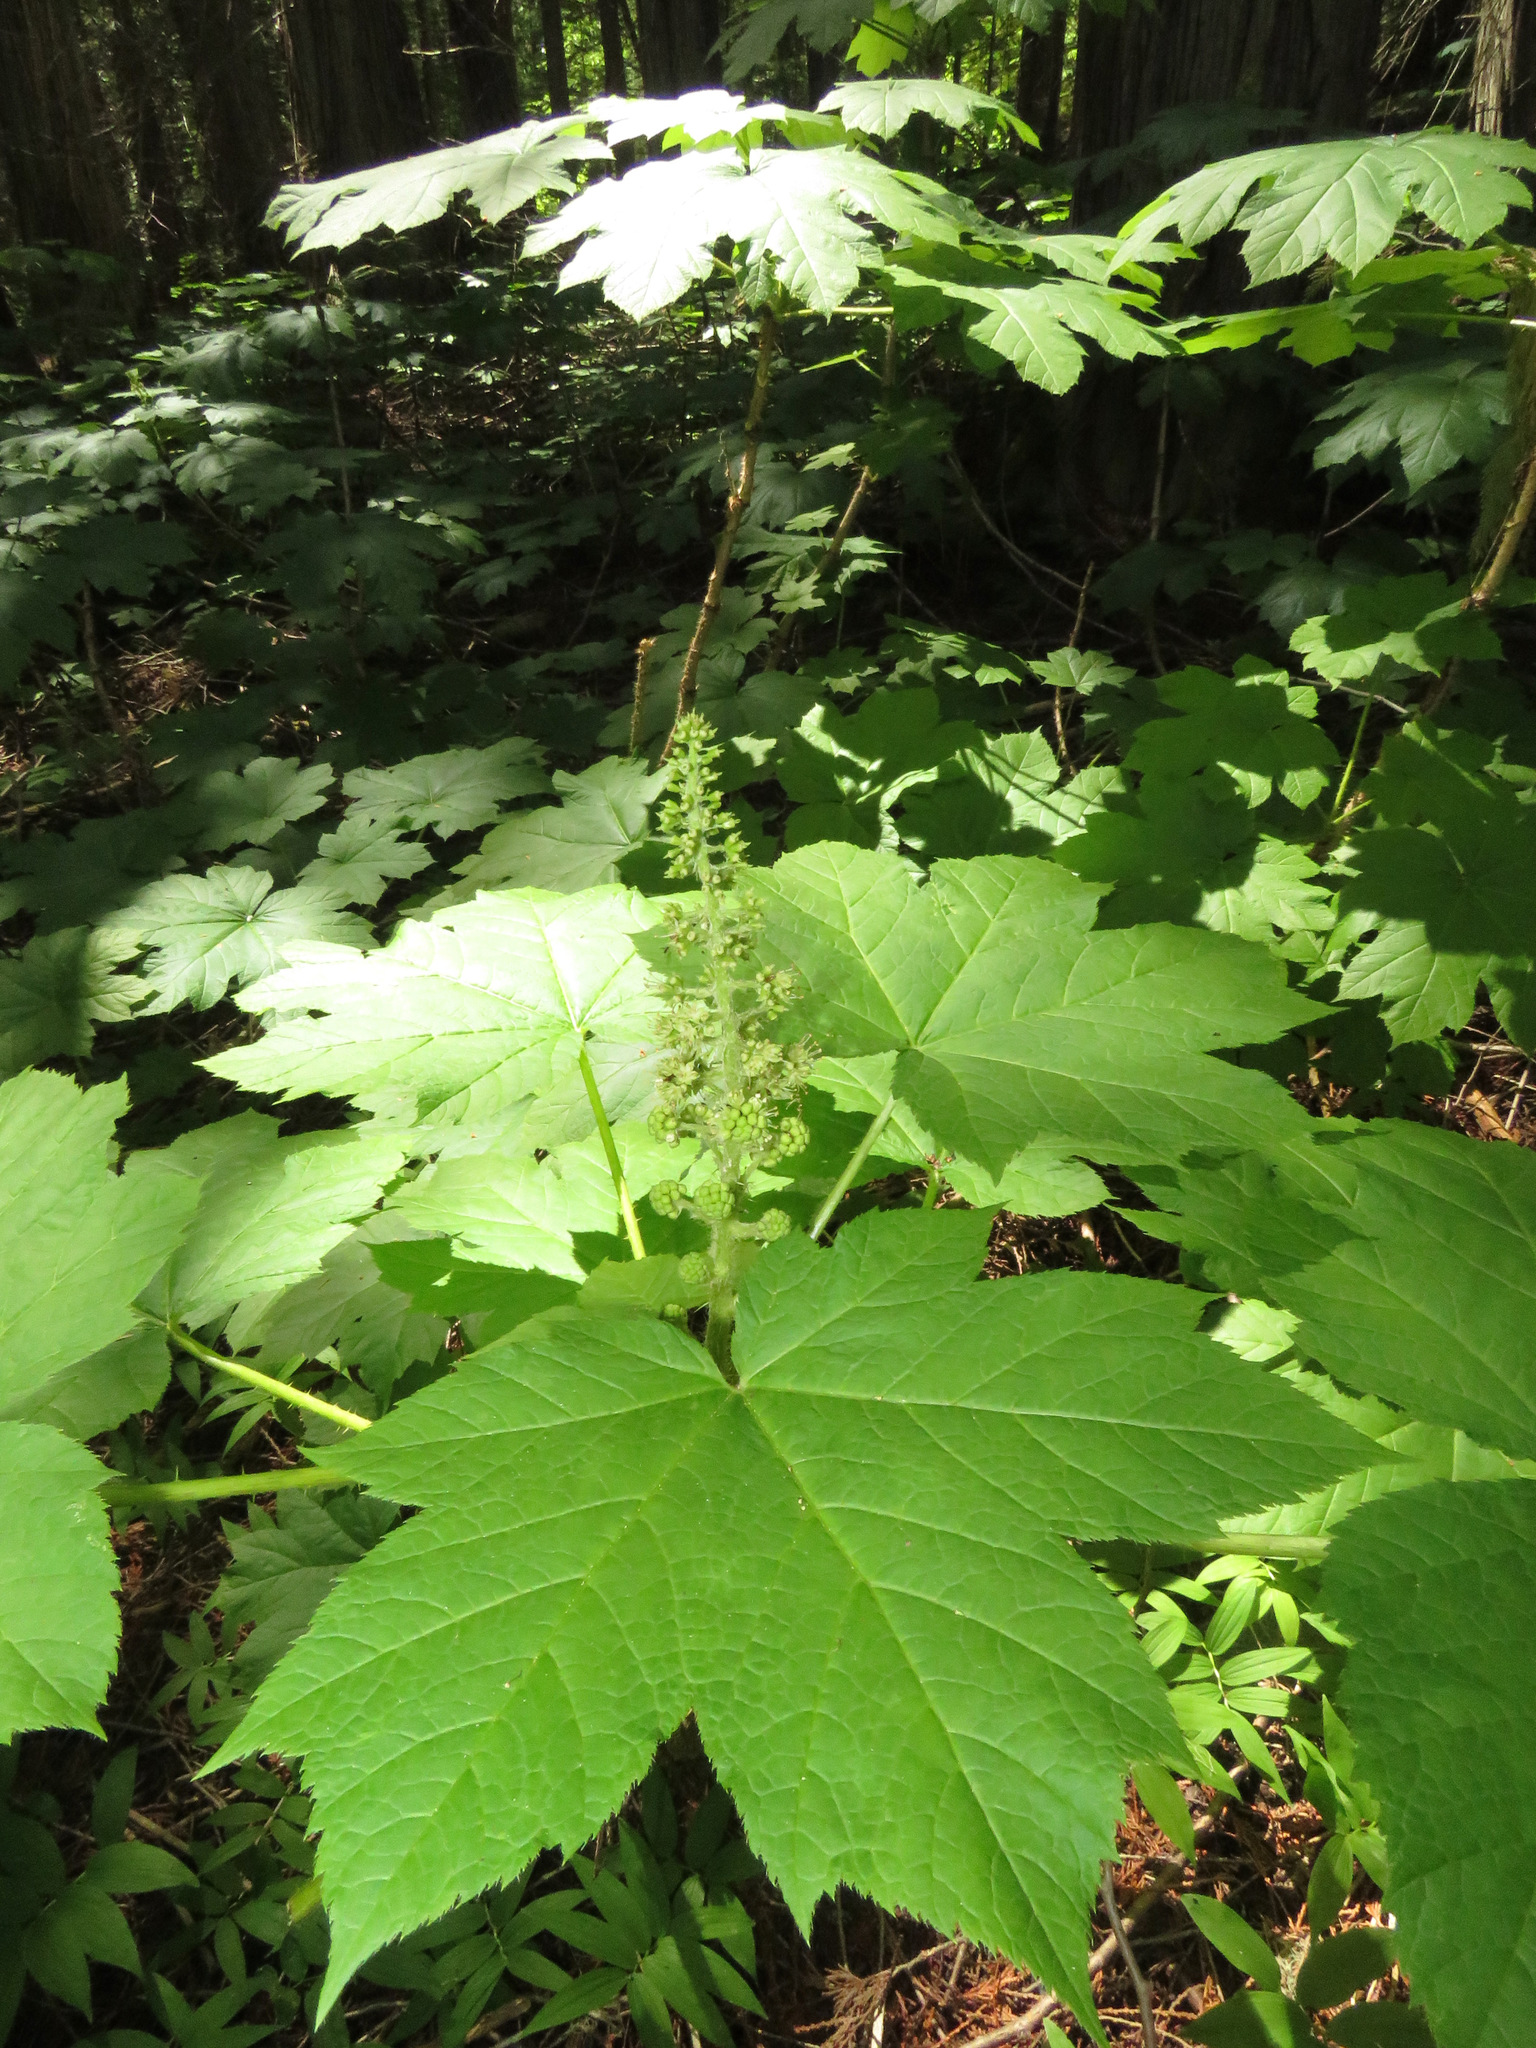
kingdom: Plantae
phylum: Tracheophyta
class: Magnoliopsida
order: Apiales
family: Araliaceae
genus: Oplopanax
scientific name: Oplopanax horridus
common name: Devil's walking-stick
